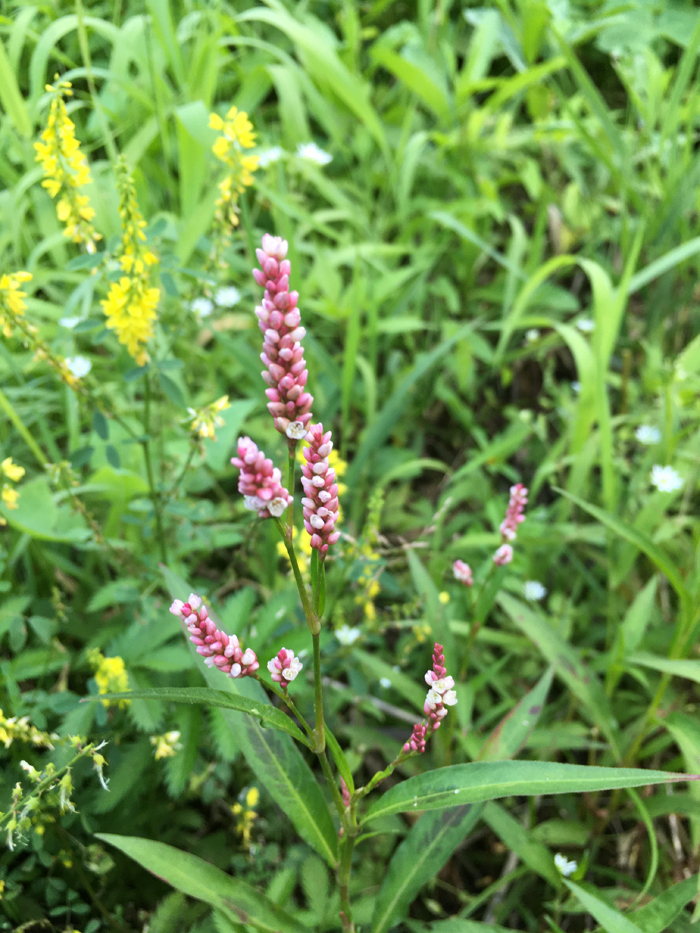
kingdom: Plantae
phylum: Tracheophyta
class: Magnoliopsida
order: Caryophyllales
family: Polygonaceae
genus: Persicaria
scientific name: Persicaria maculosa
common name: Redshank
